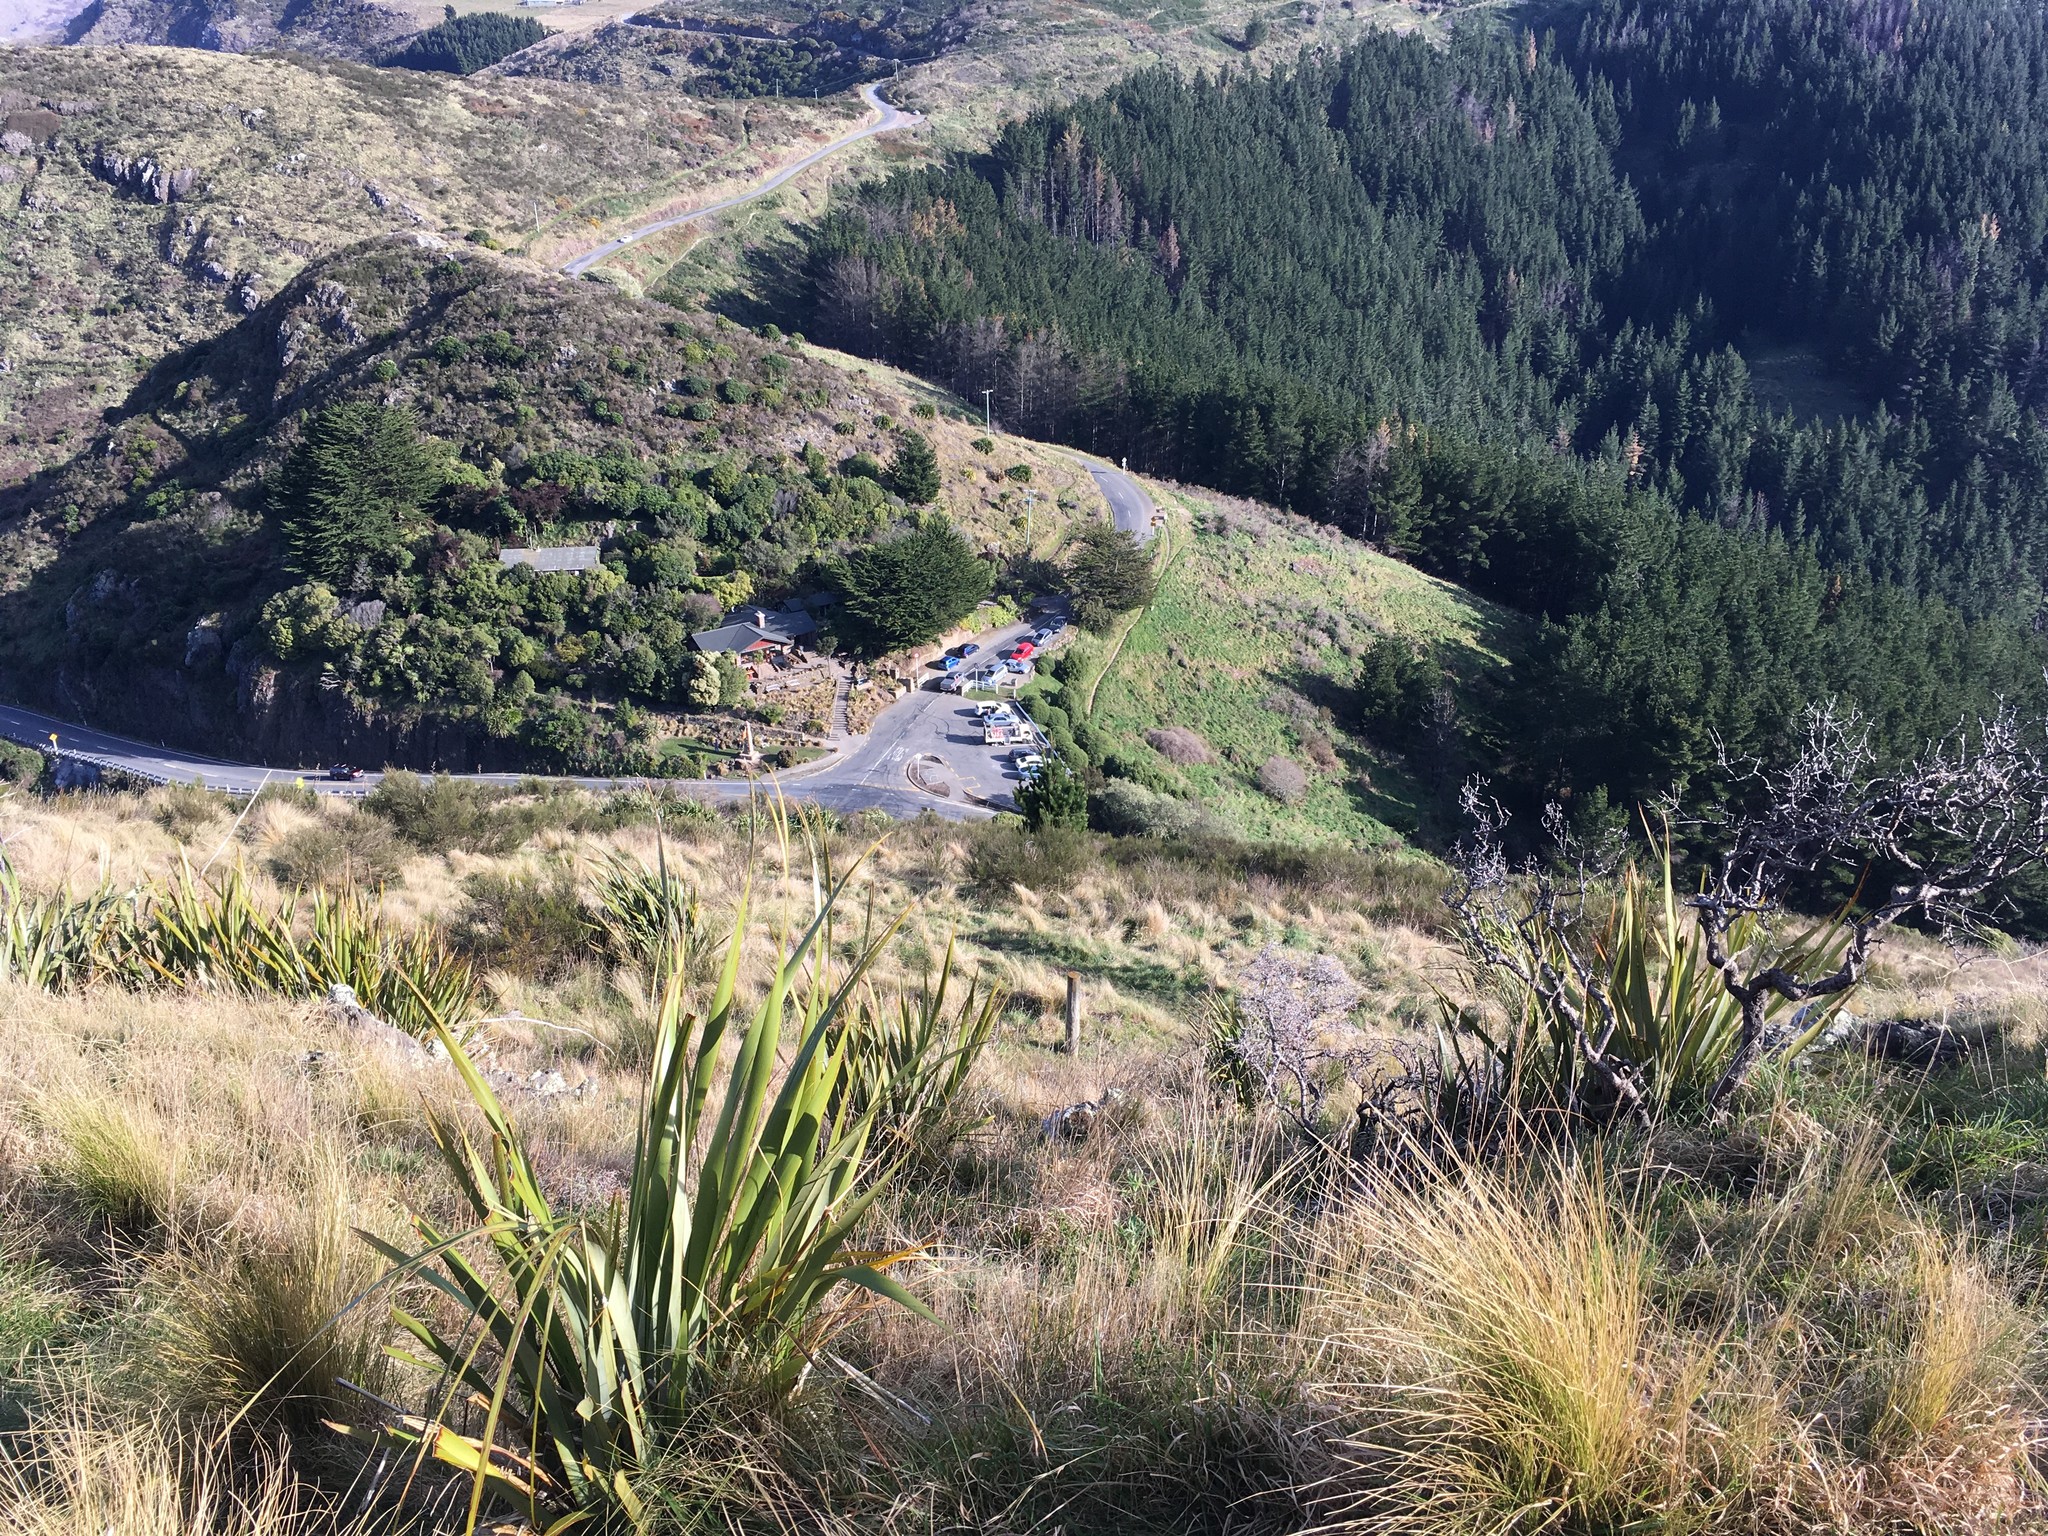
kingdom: Plantae
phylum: Tracheophyta
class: Liliopsida
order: Asparagales
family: Asphodelaceae
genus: Phormium
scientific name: Phormium tenax
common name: New zealand flax
